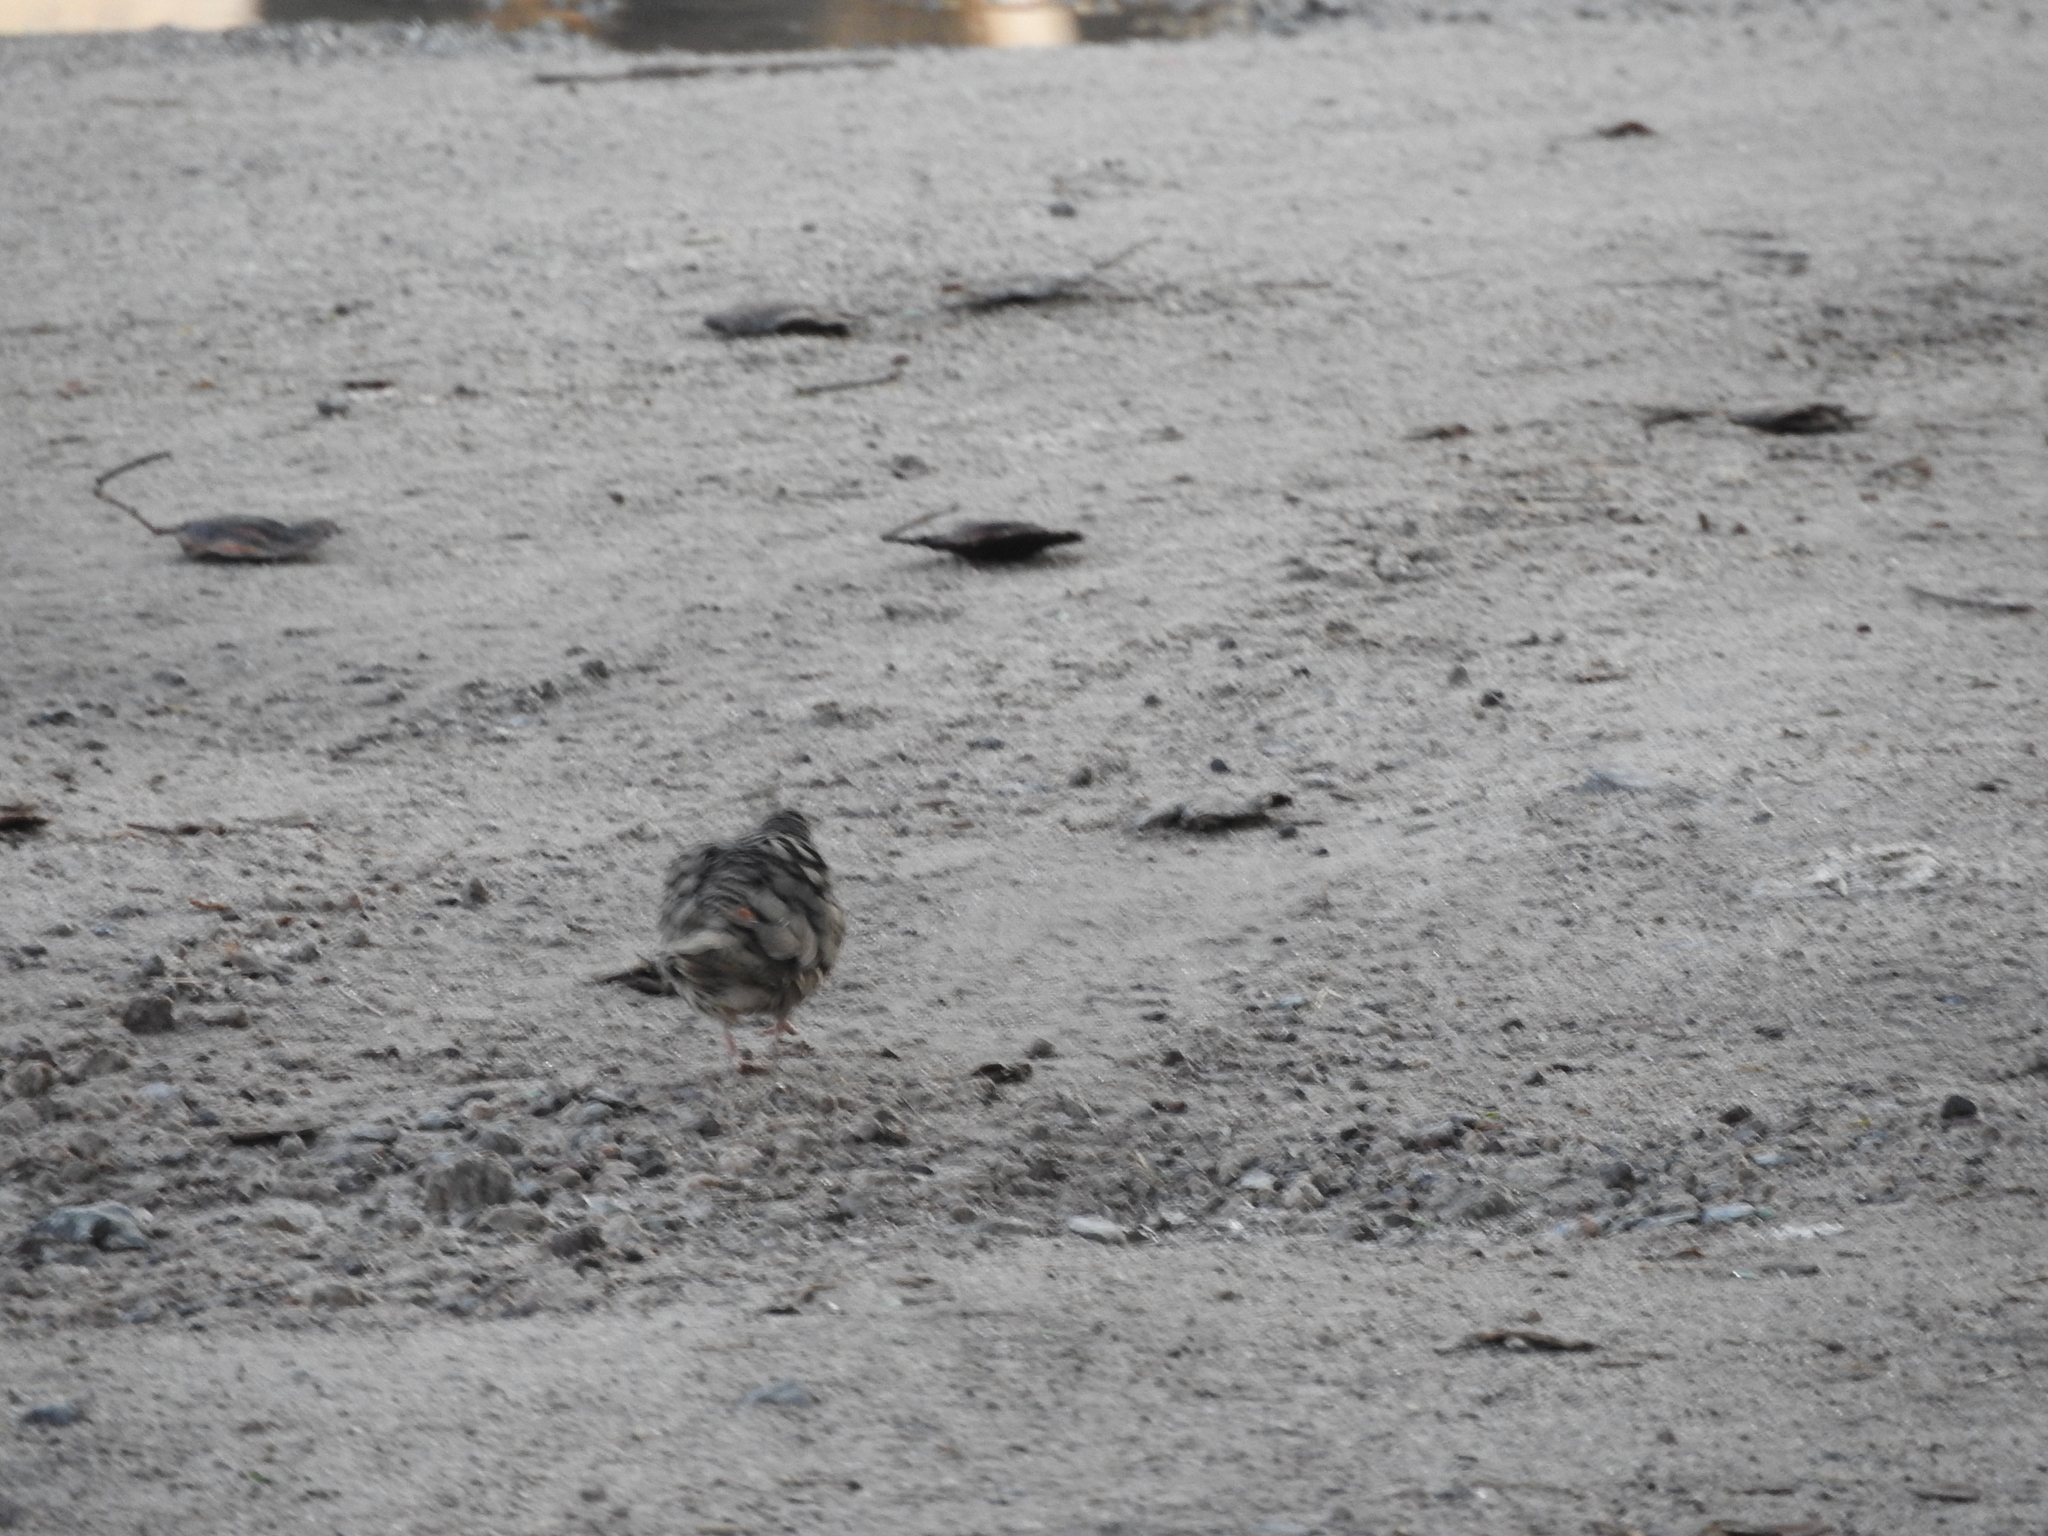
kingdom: Animalia
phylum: Chordata
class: Aves
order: Columbiformes
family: Columbidae
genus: Columbina
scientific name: Columbina inca
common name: Inca dove
